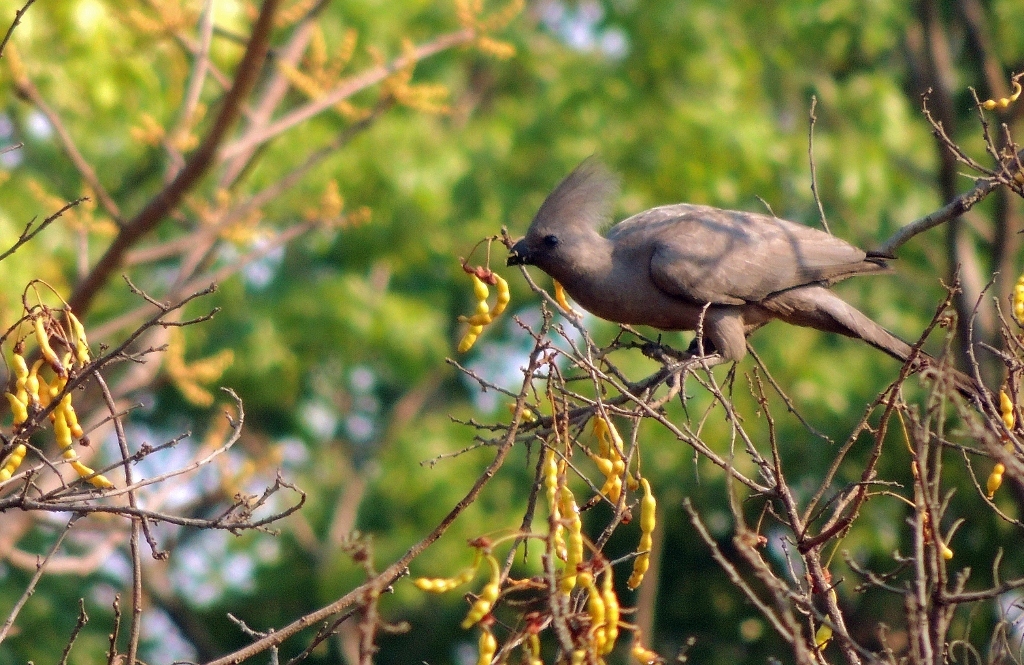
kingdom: Animalia
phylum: Chordata
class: Aves
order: Musophagiformes
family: Musophagidae
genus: Corythaixoides
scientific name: Corythaixoides concolor
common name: Grey go-away-bird
